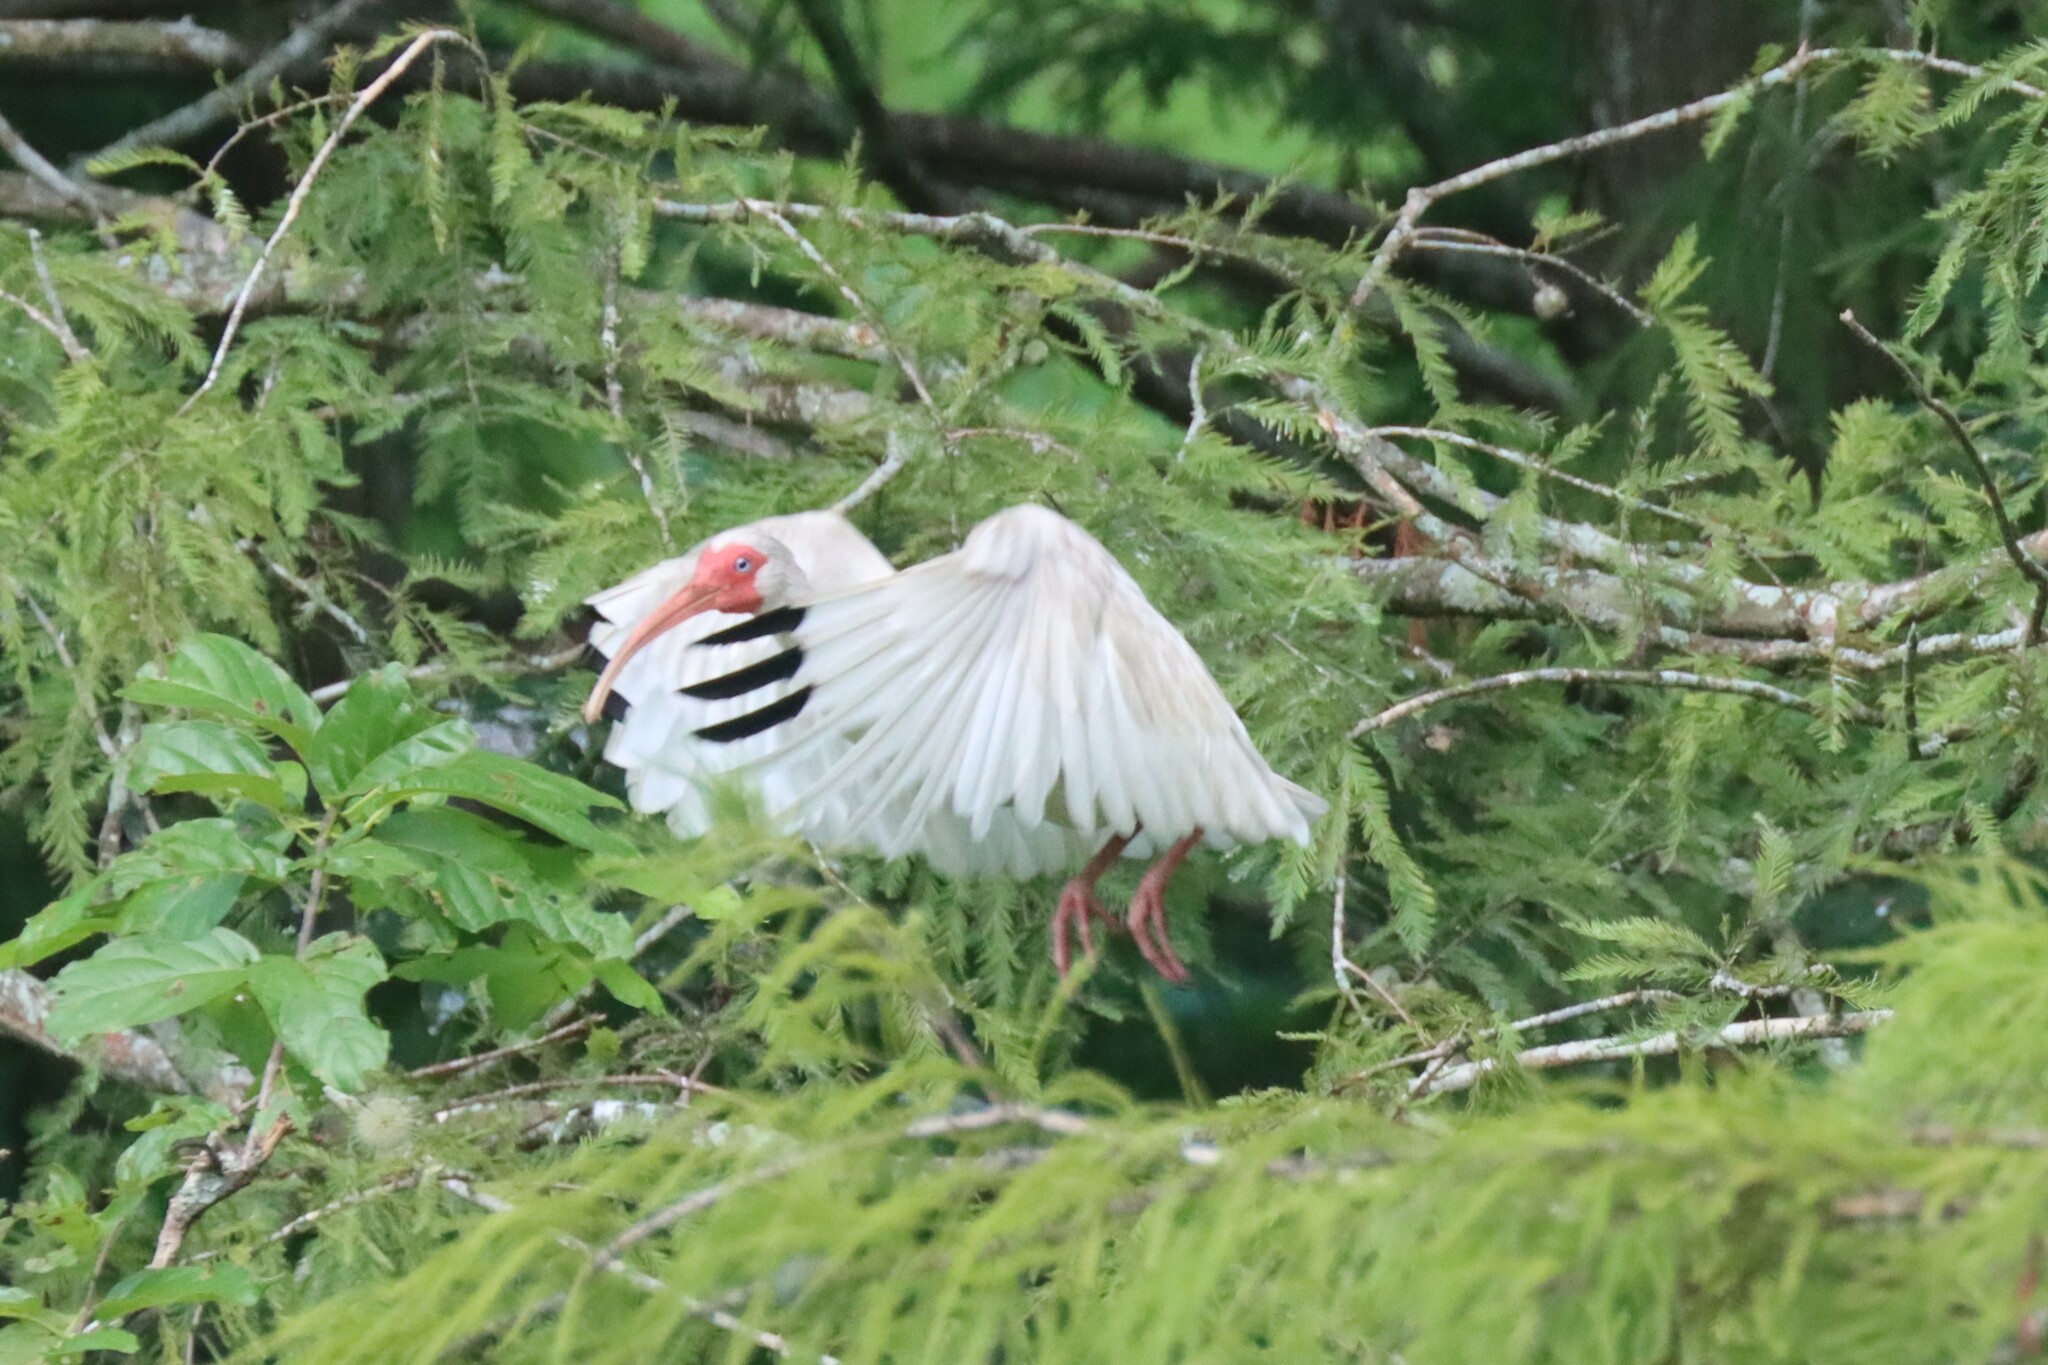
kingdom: Animalia
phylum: Chordata
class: Aves
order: Pelecaniformes
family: Threskiornithidae
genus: Eudocimus
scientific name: Eudocimus albus
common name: White ibis
